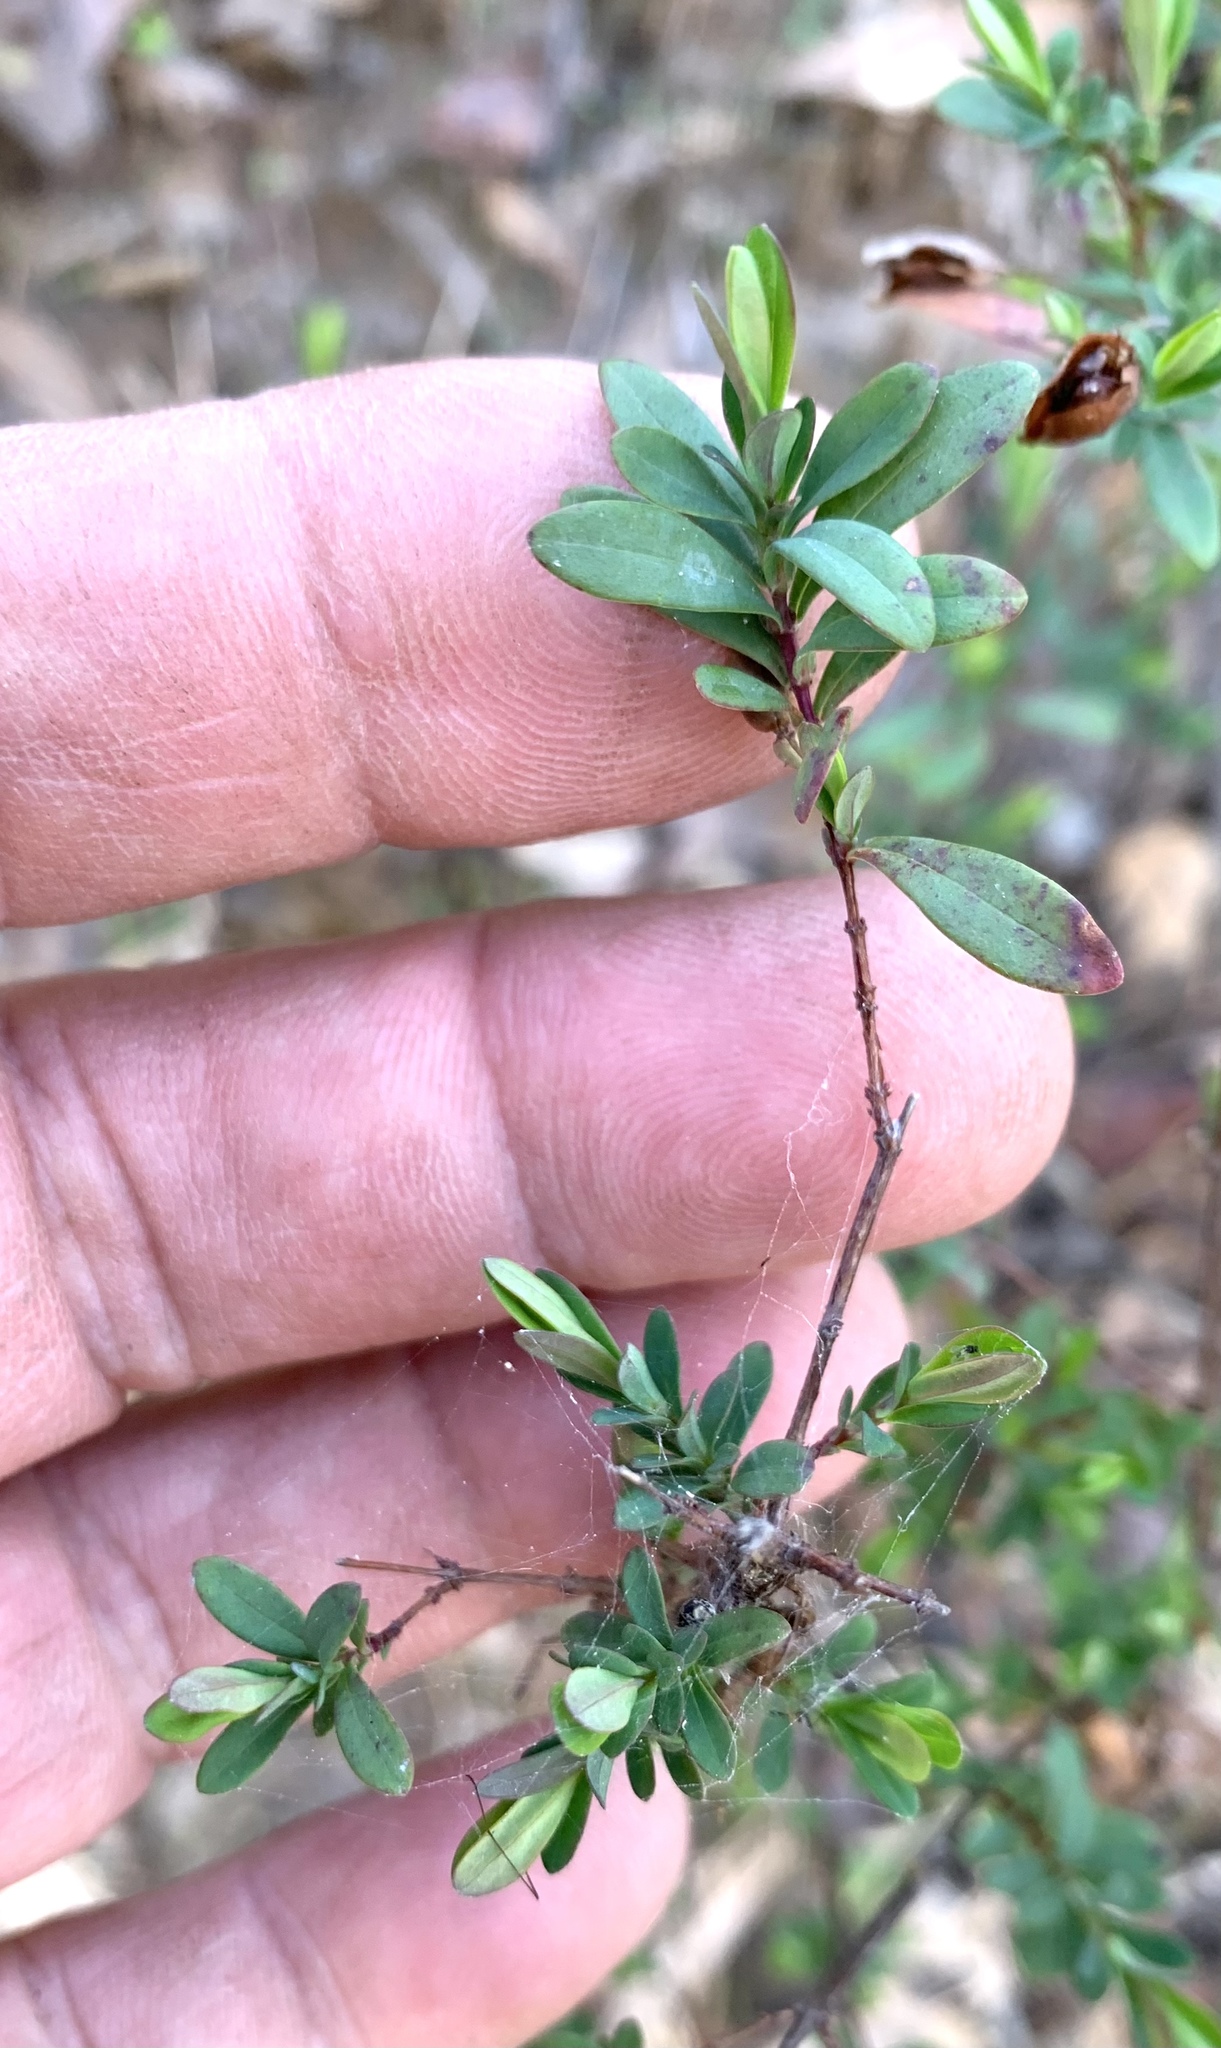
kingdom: Plantae
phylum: Tracheophyta
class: Magnoliopsida
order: Malpighiales
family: Hypericaceae
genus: Hypericum
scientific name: Hypericum hypericoides
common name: St. andrew's cross
